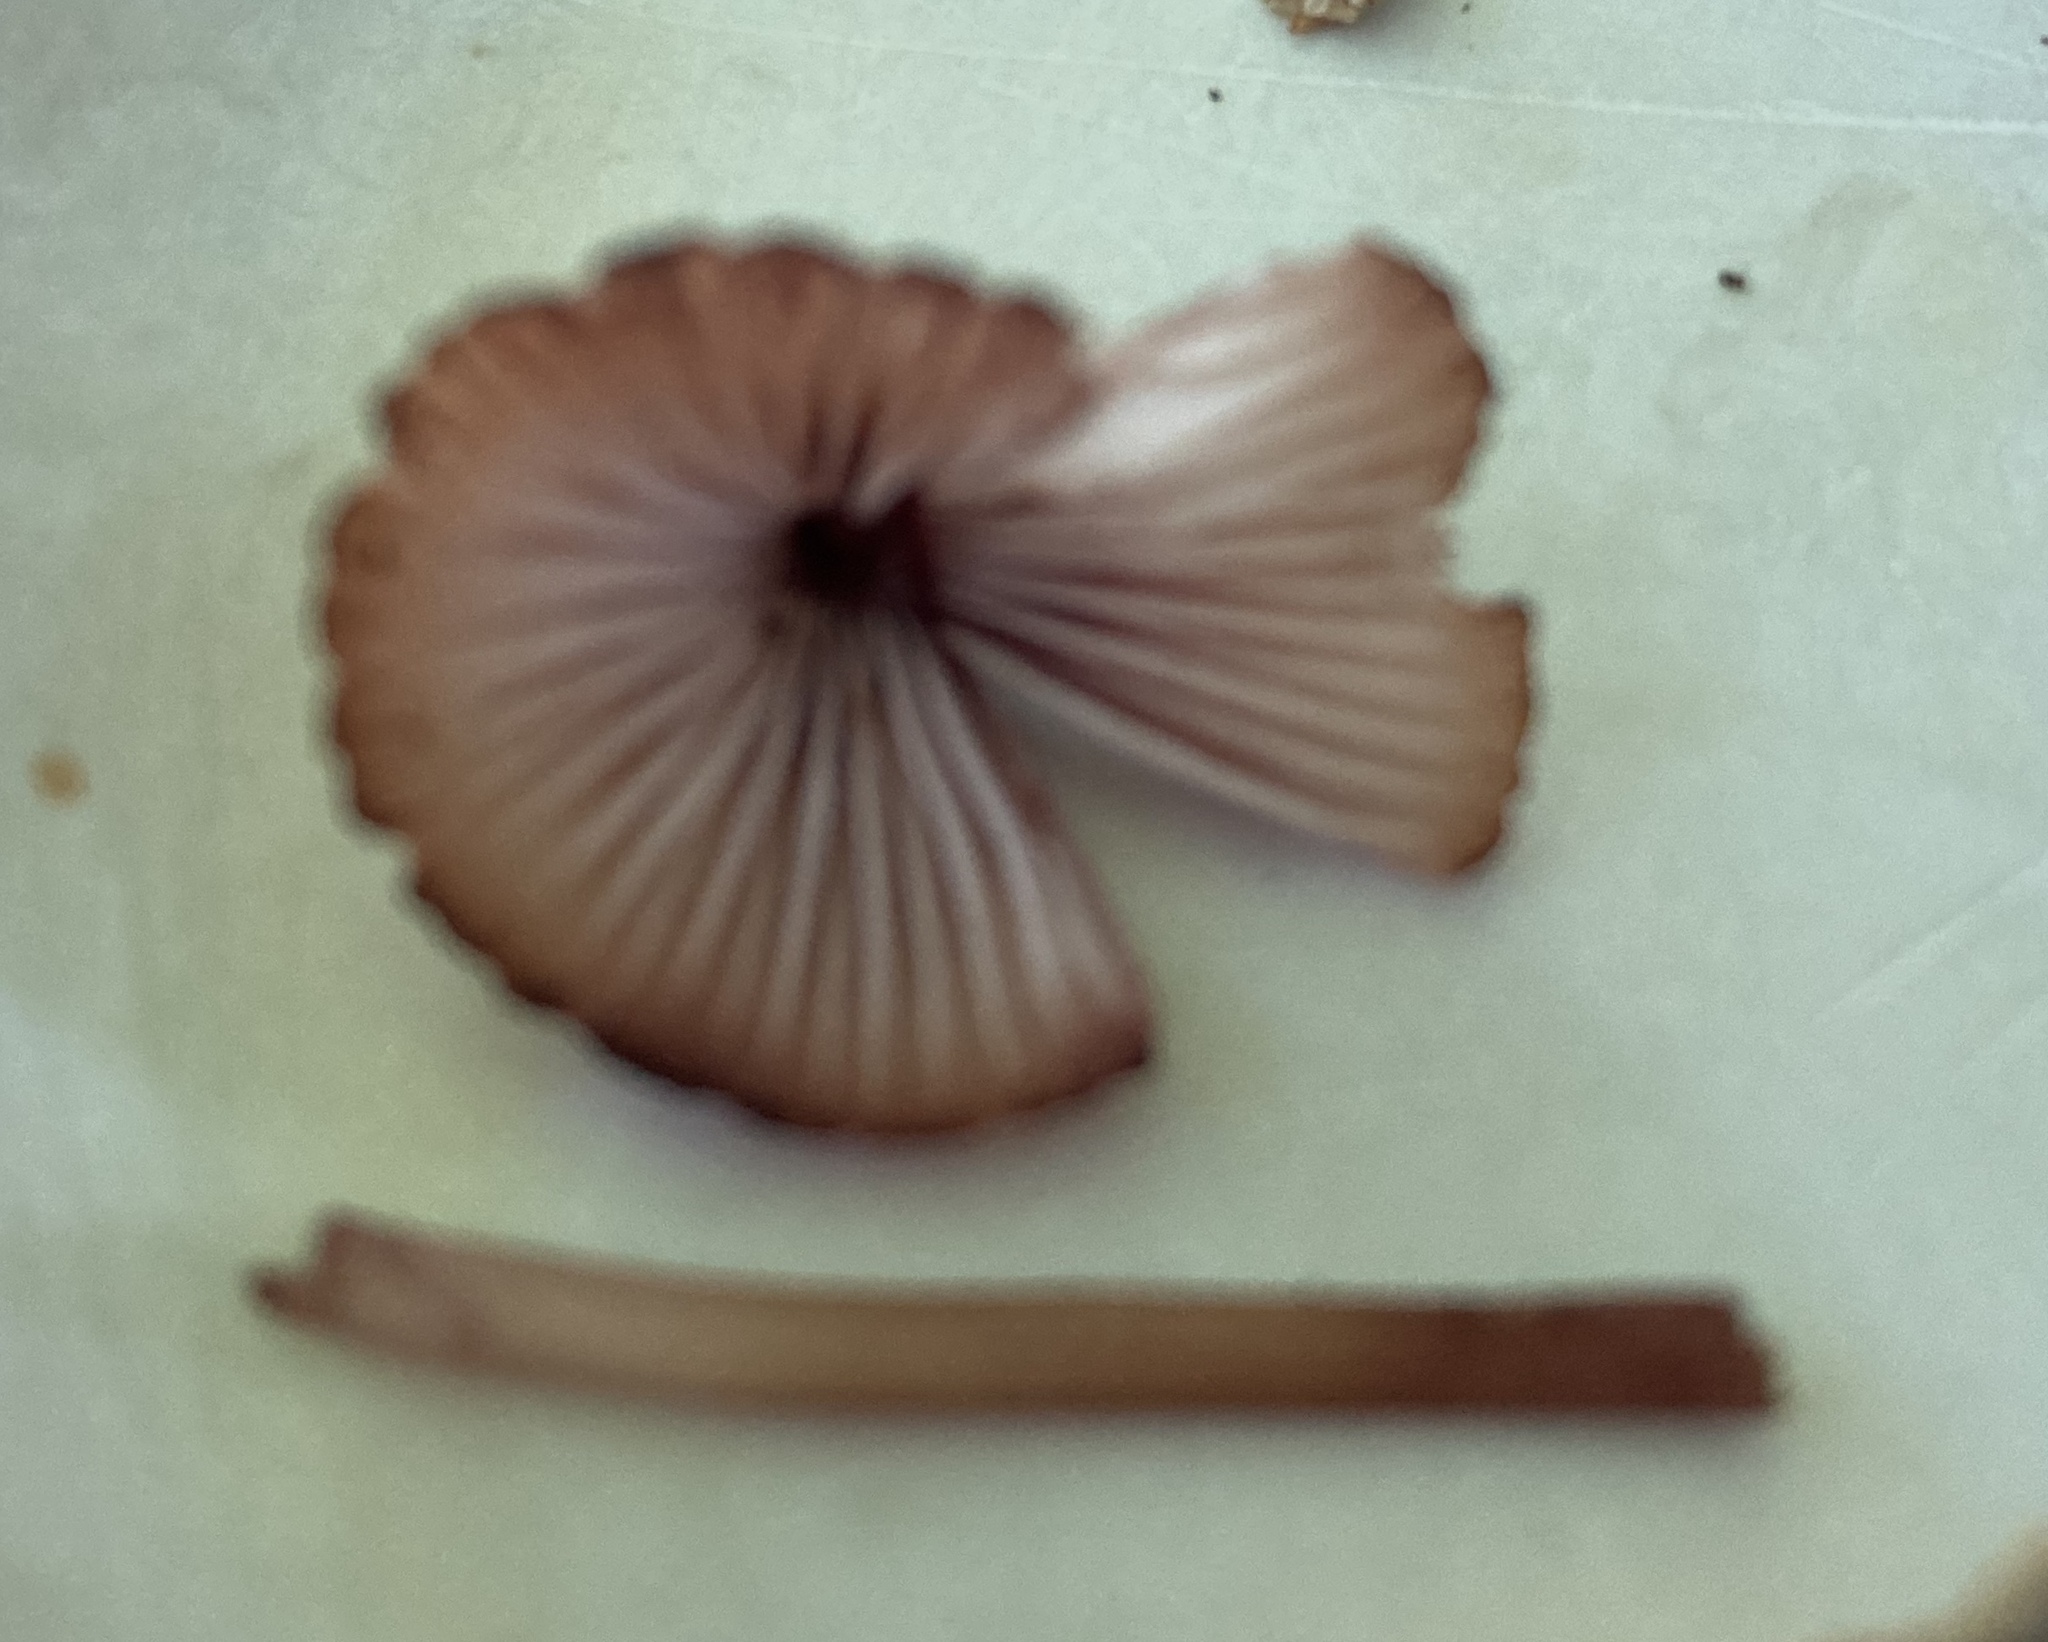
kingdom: Fungi
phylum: Basidiomycota
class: Agaricomycetes
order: Agaricales
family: Mycenaceae
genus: Mycena
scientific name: Mycena haematopus
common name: Burgundydrop bonnet
